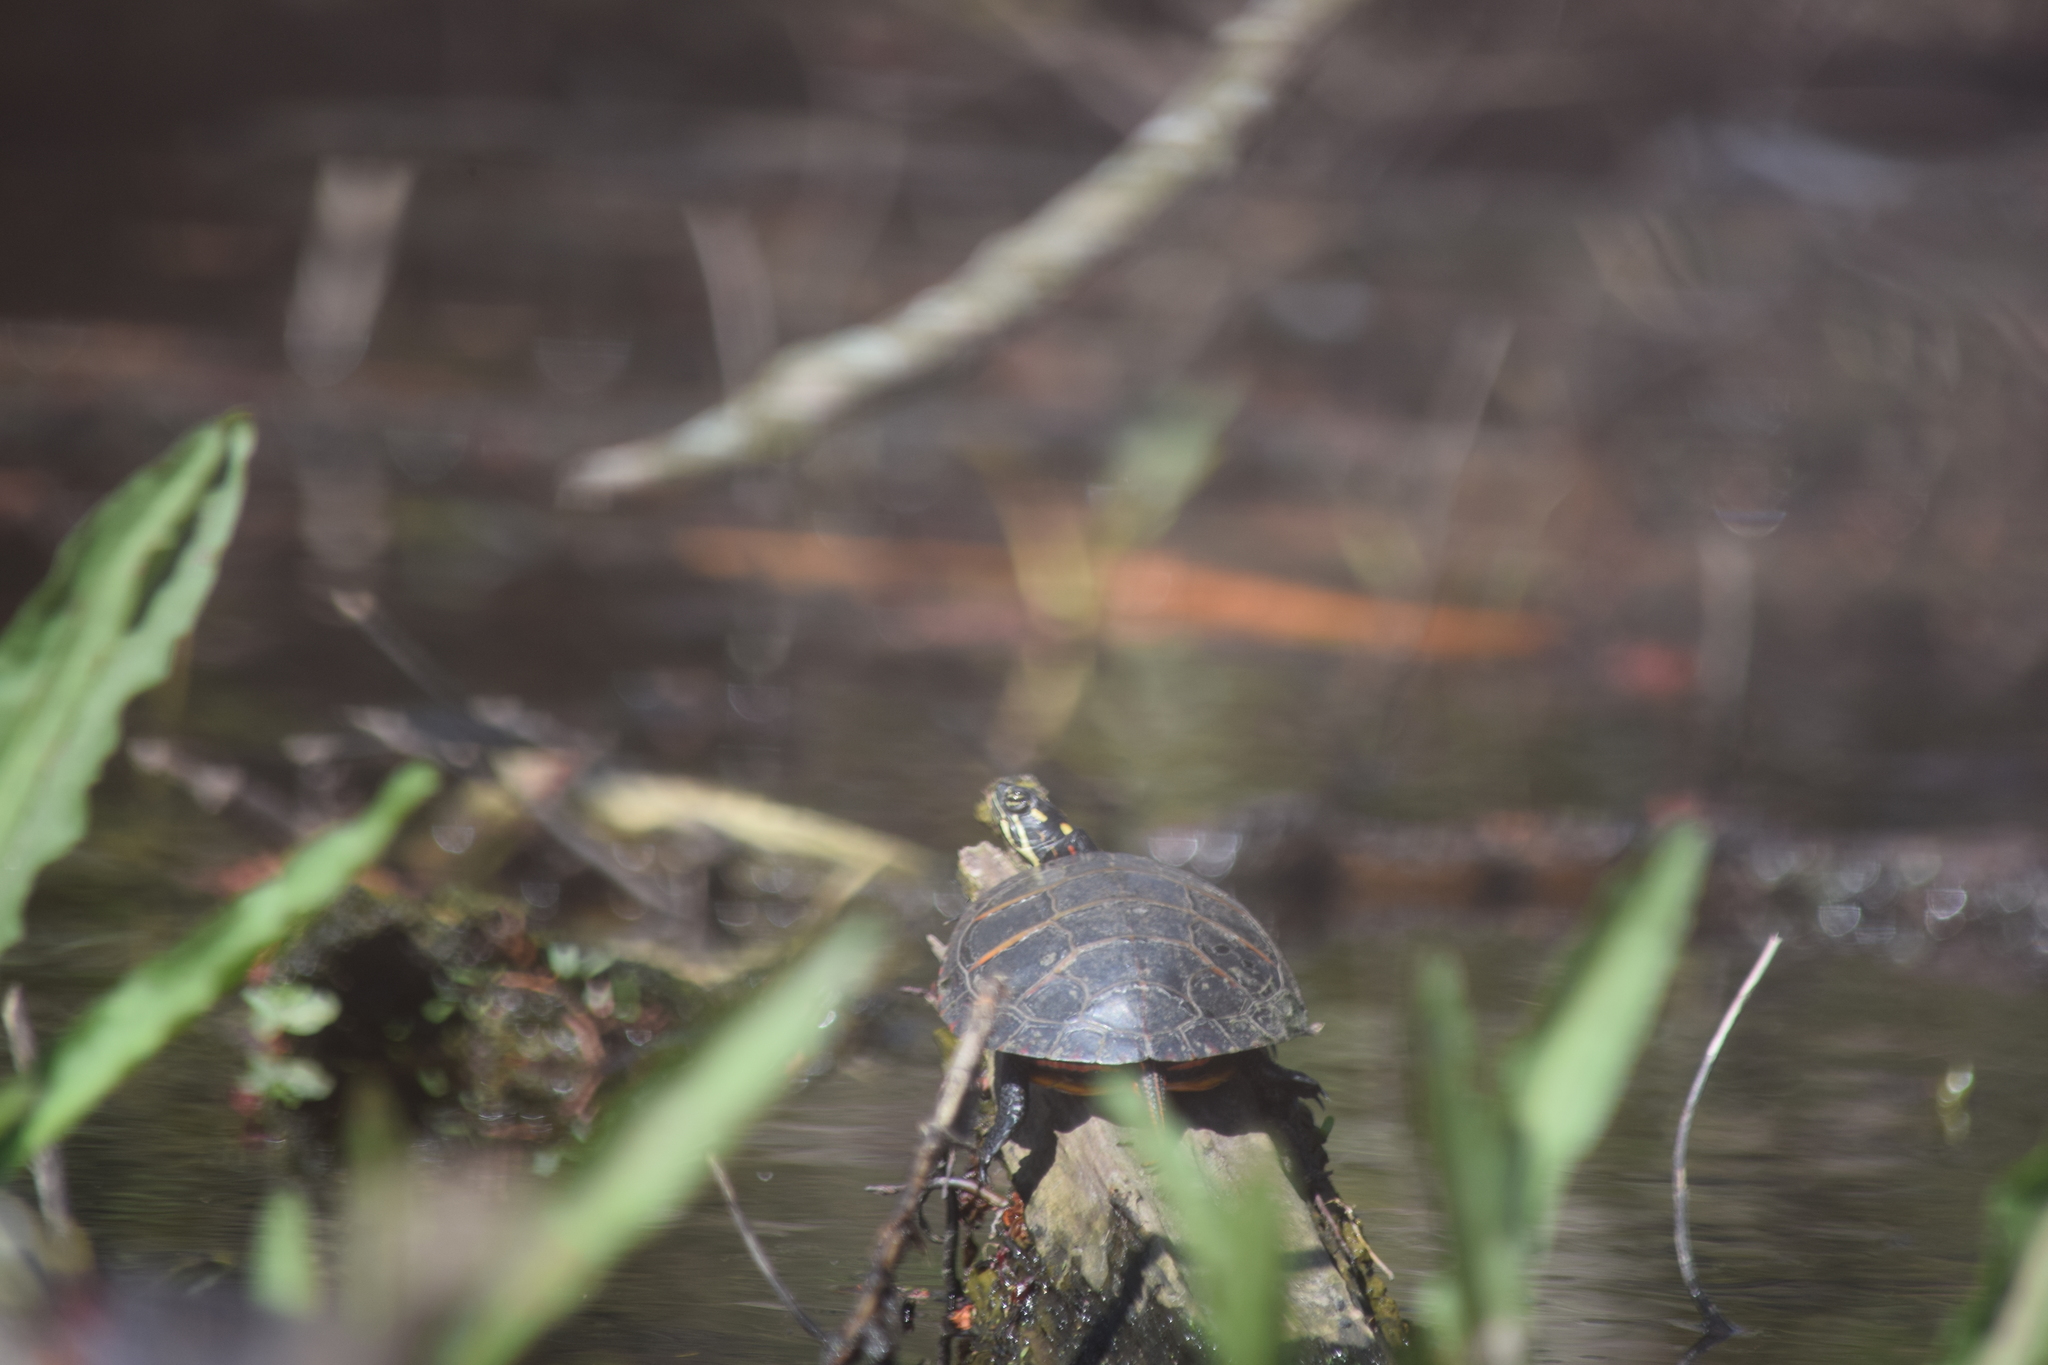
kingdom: Animalia
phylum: Chordata
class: Testudines
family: Emydidae
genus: Chrysemys
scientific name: Chrysemys picta
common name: Painted turtle
